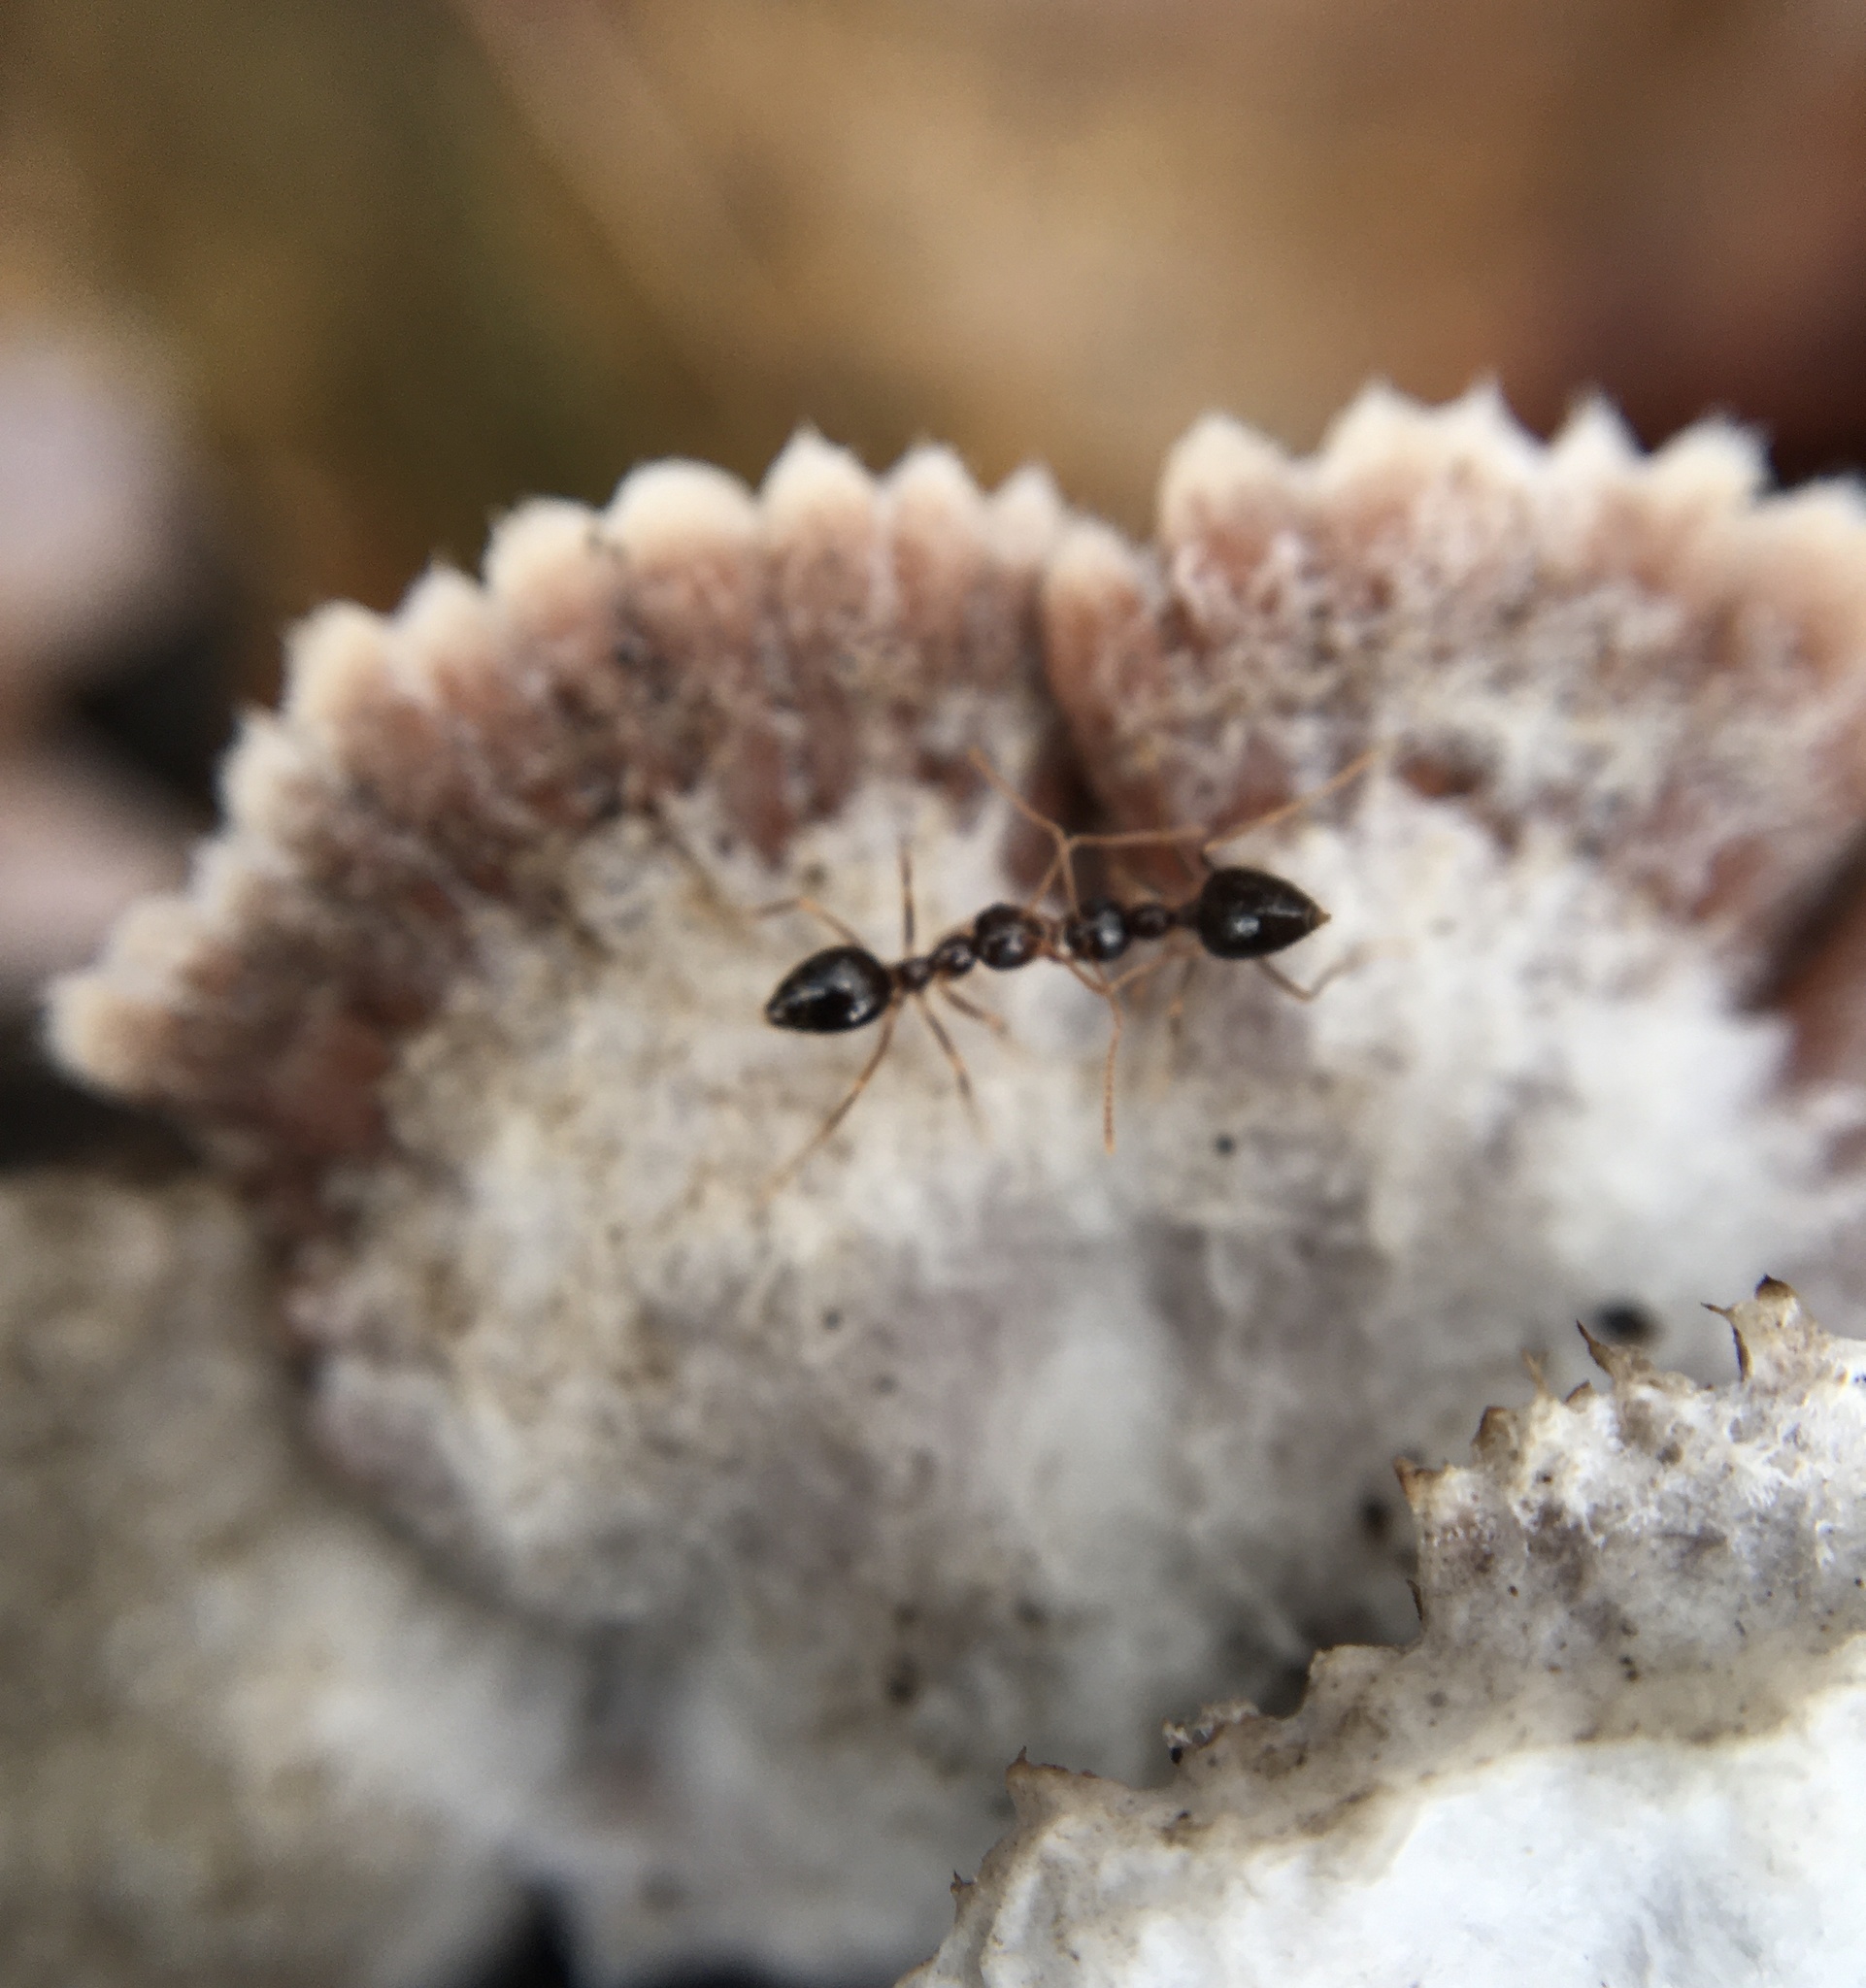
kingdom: Fungi
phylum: Basidiomycota
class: Agaricomycetes
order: Agaricales
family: Schizophyllaceae
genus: Schizophyllum
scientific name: Schizophyllum commune
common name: Common porecrust
